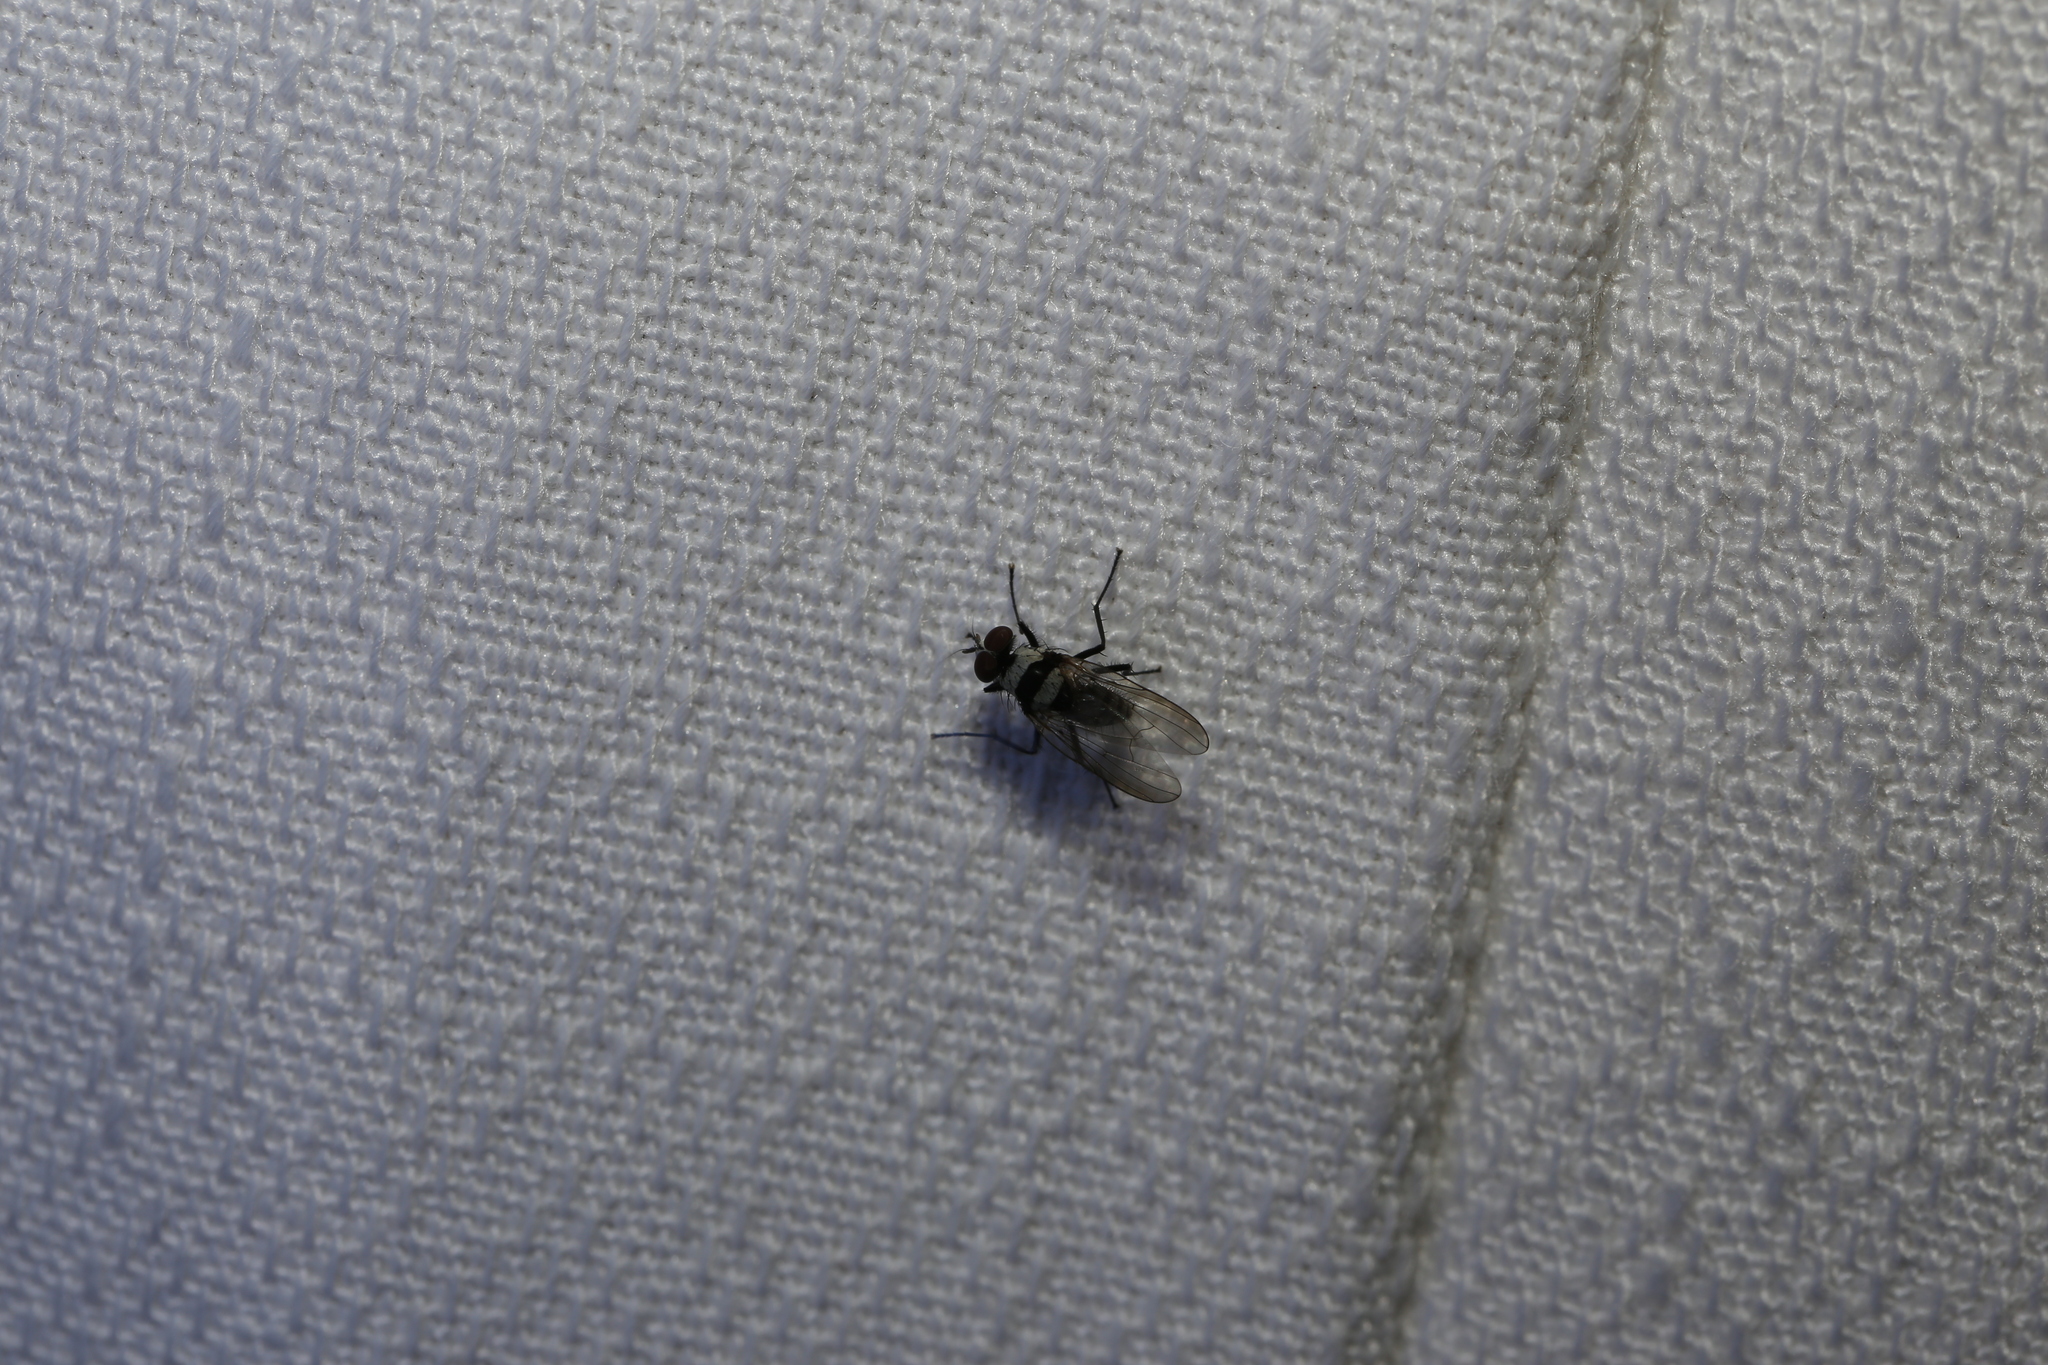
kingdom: Animalia
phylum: Arthropoda
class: Insecta
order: Diptera
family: Anthomyiidae
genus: Anthomyia
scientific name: Anthomyia medialis
